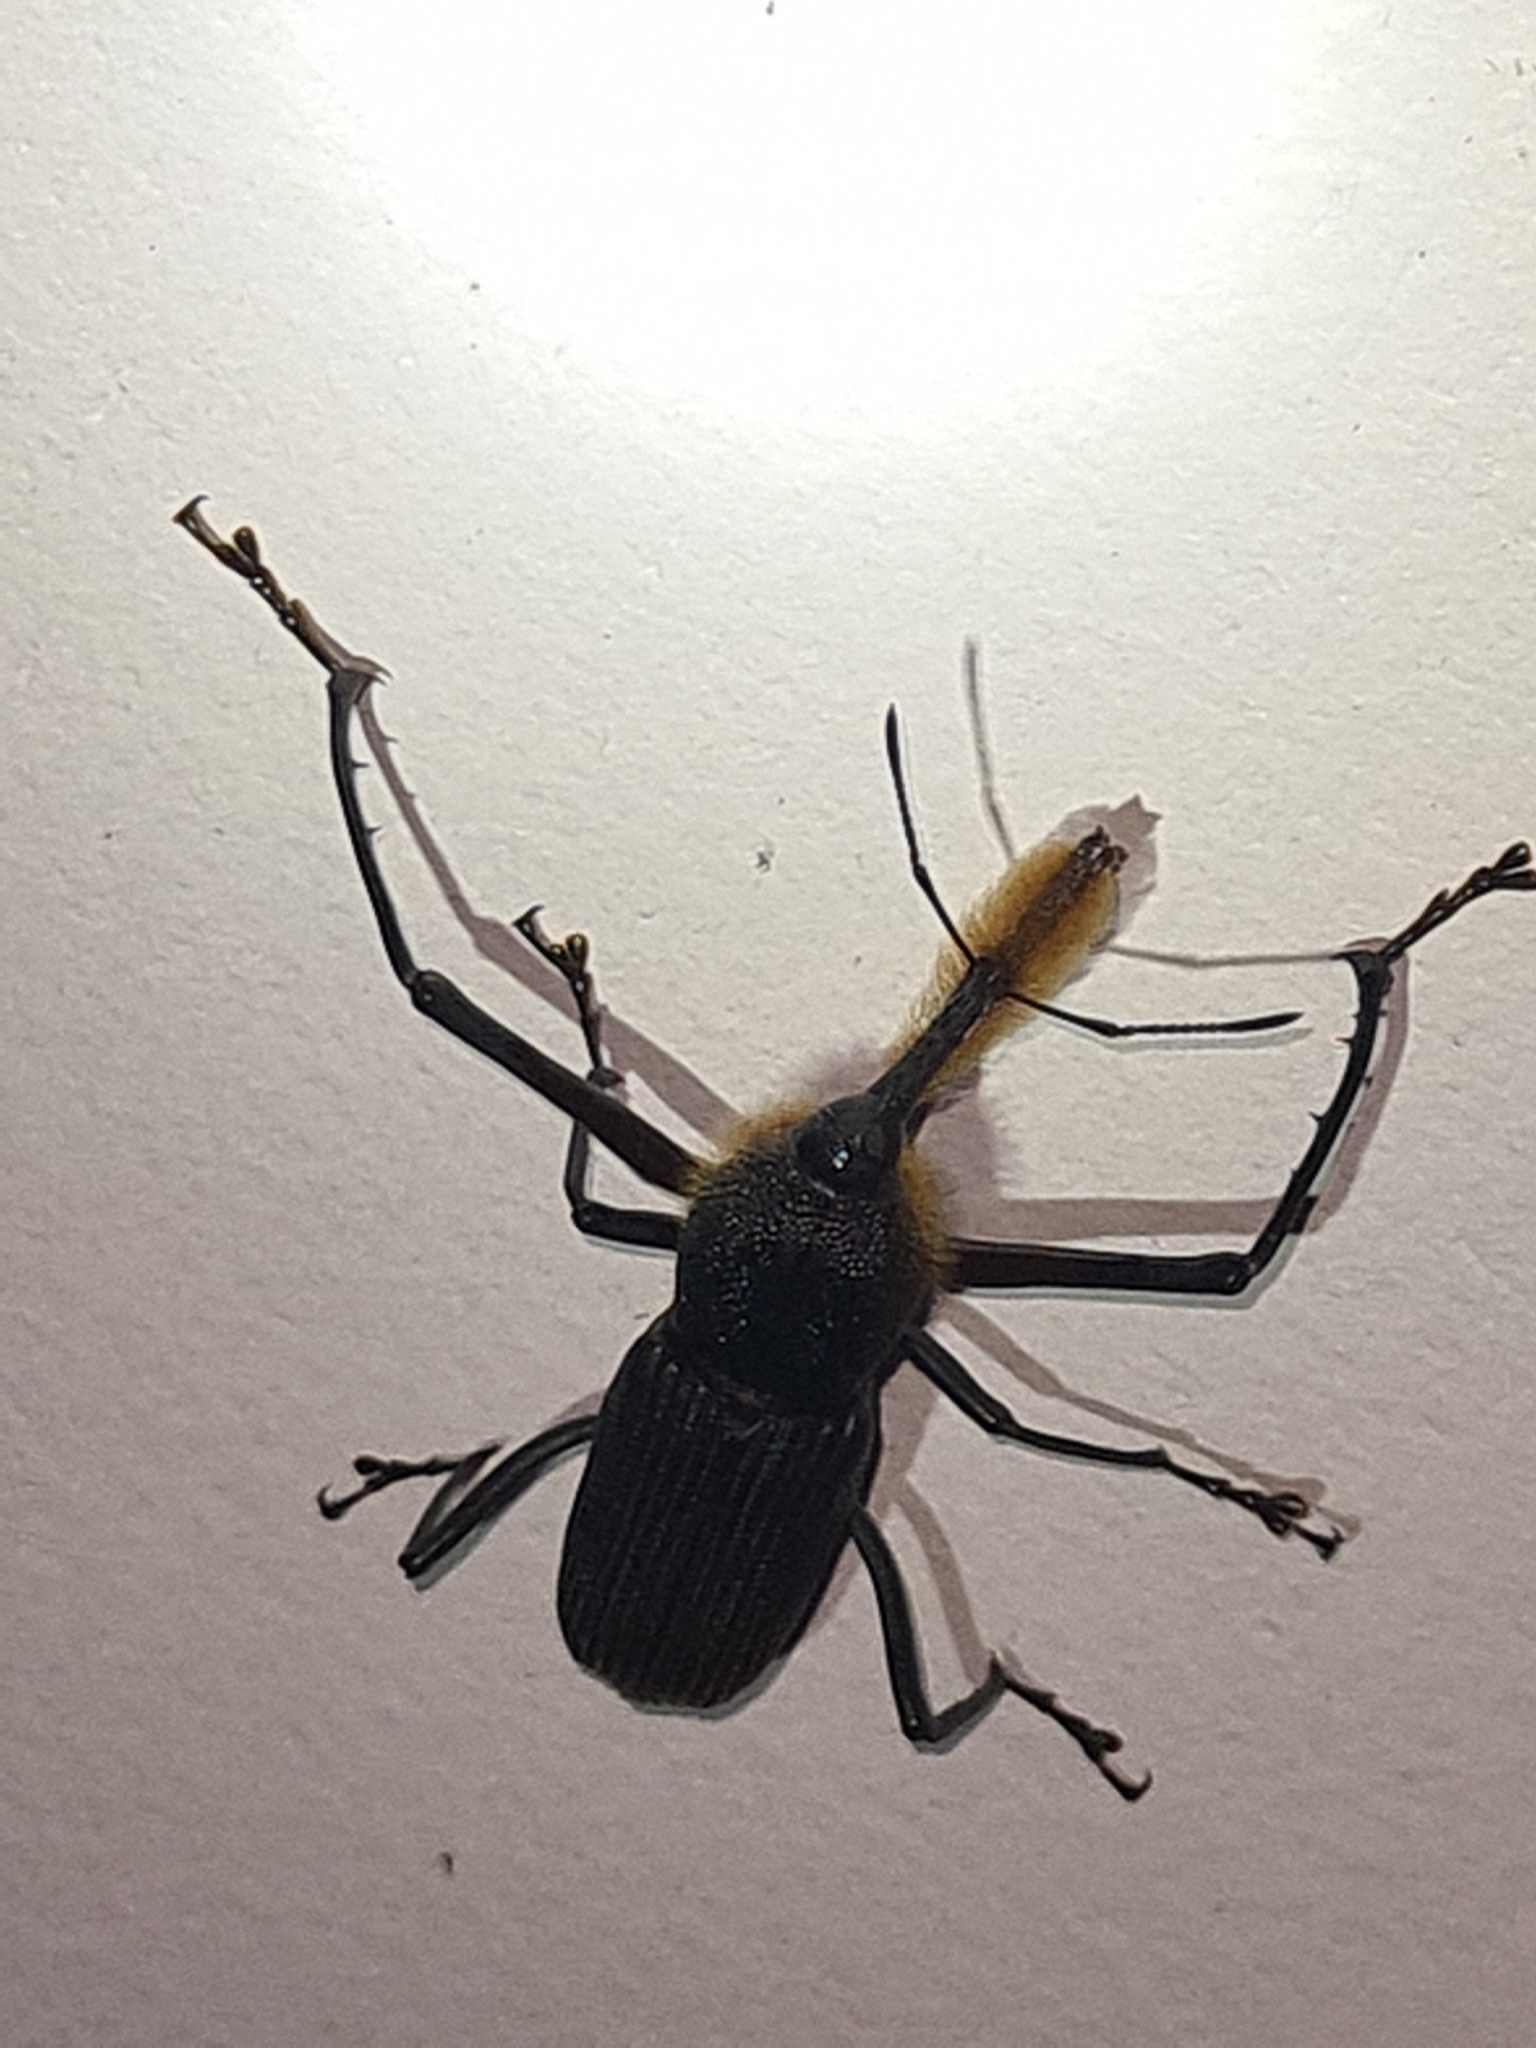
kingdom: Animalia
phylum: Arthropoda
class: Insecta
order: Coleoptera
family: Dryophthoridae
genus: Rhinostomus
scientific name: Rhinostomus barbirostris
